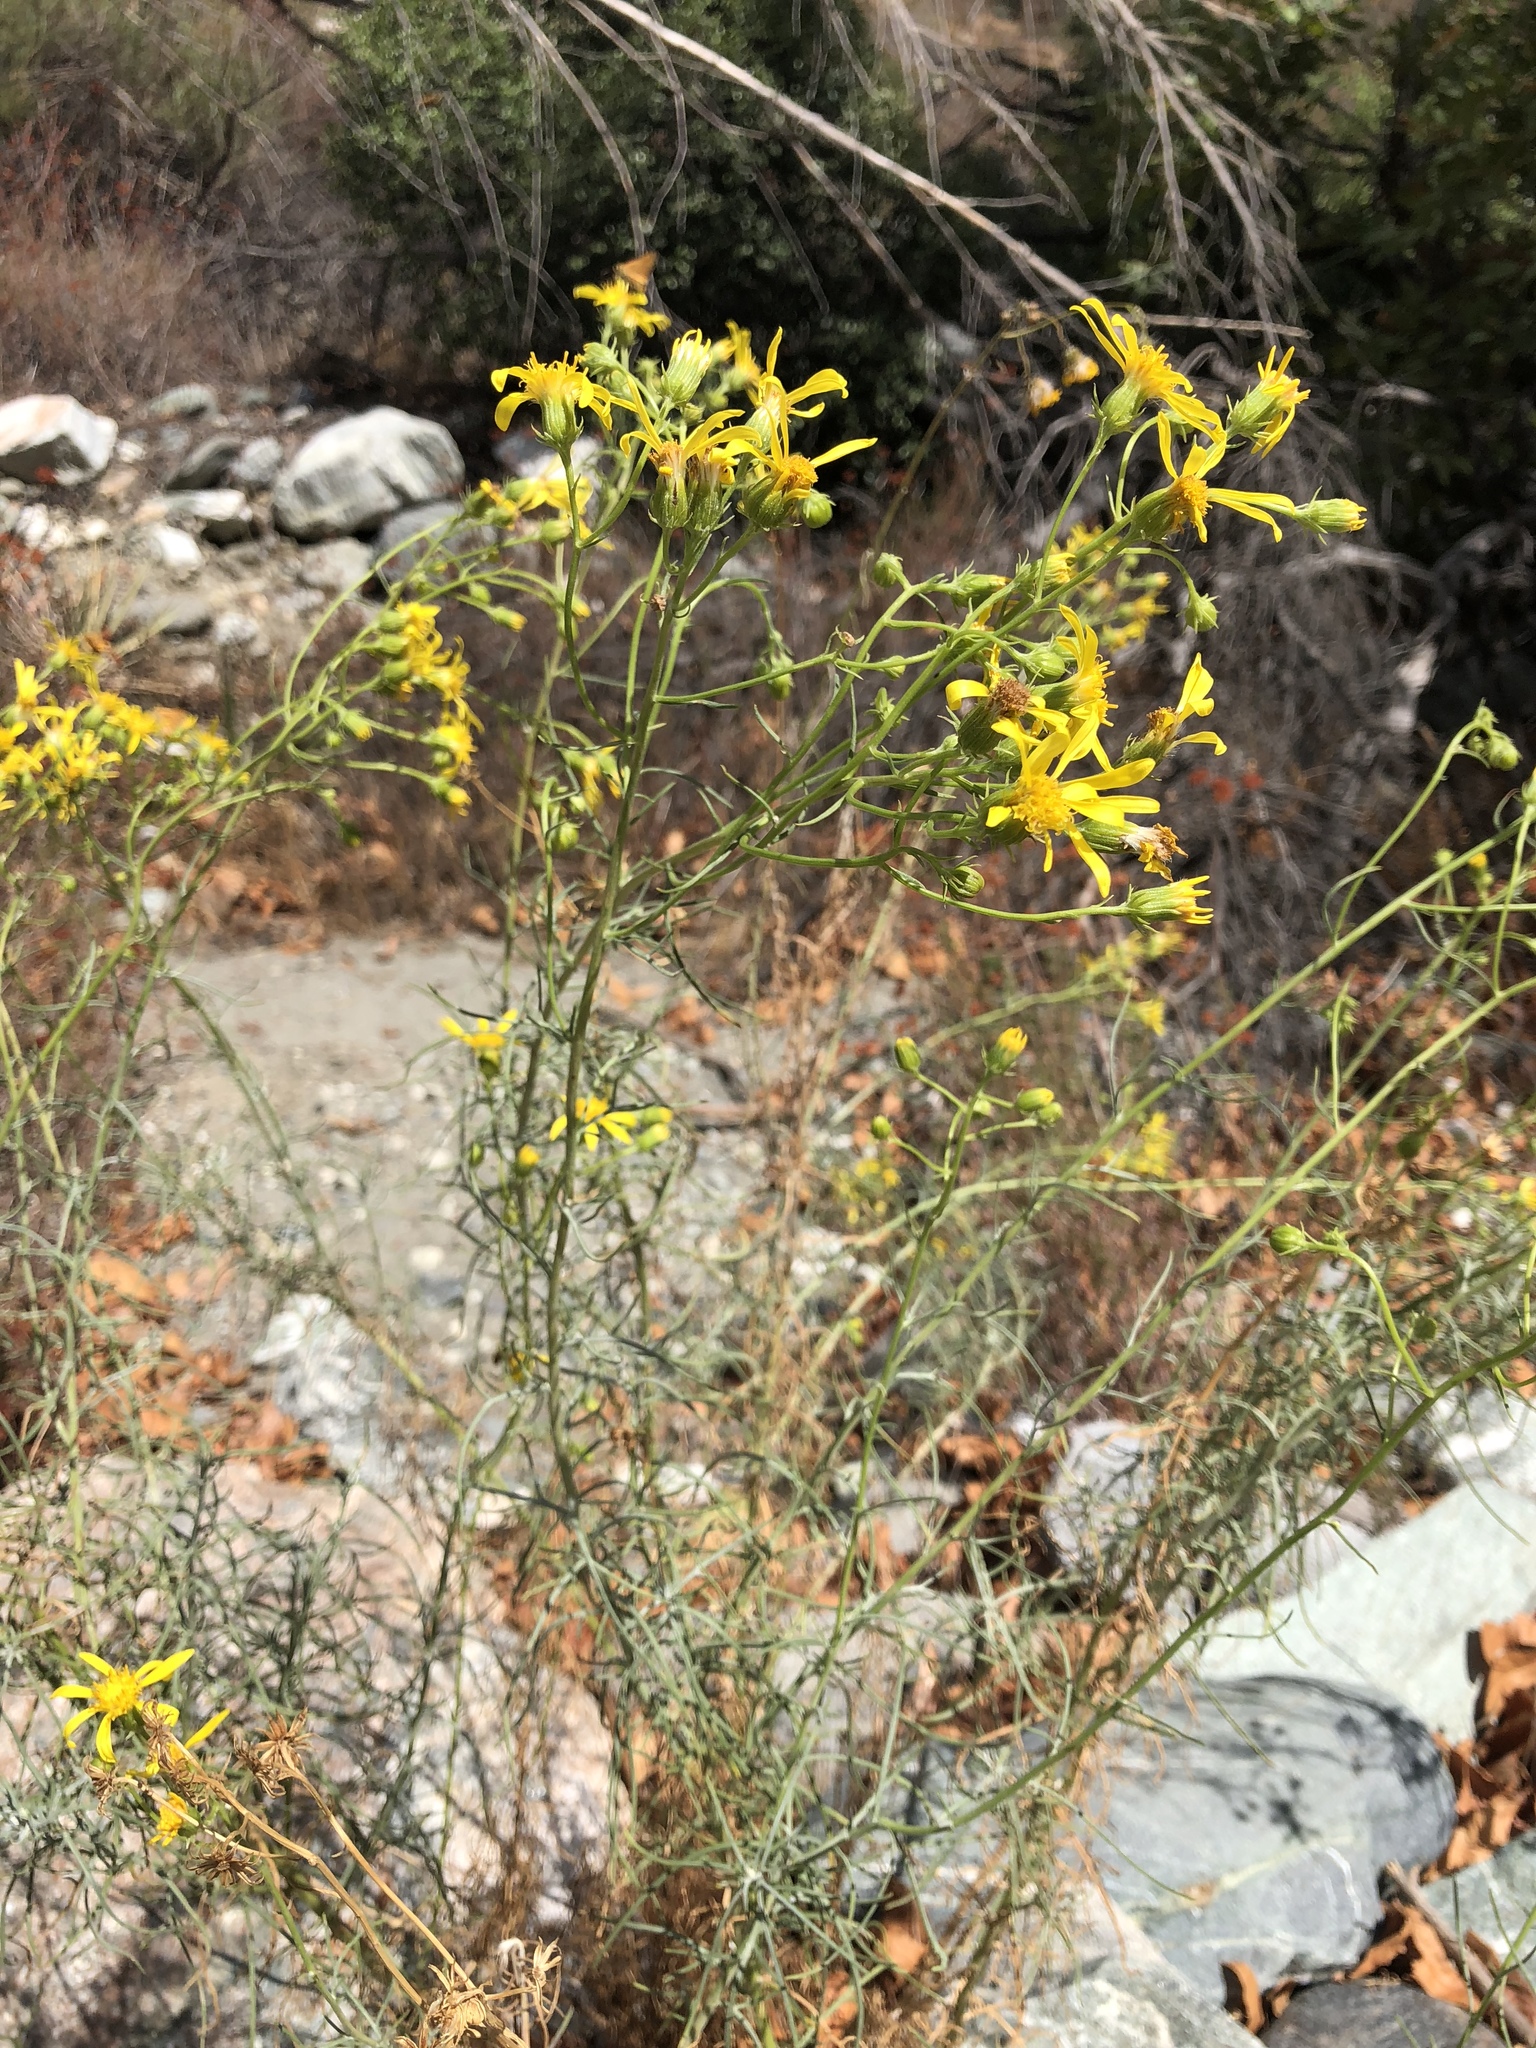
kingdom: Plantae
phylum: Tracheophyta
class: Magnoliopsida
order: Asterales
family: Asteraceae
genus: Senecio
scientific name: Senecio flaccidus
